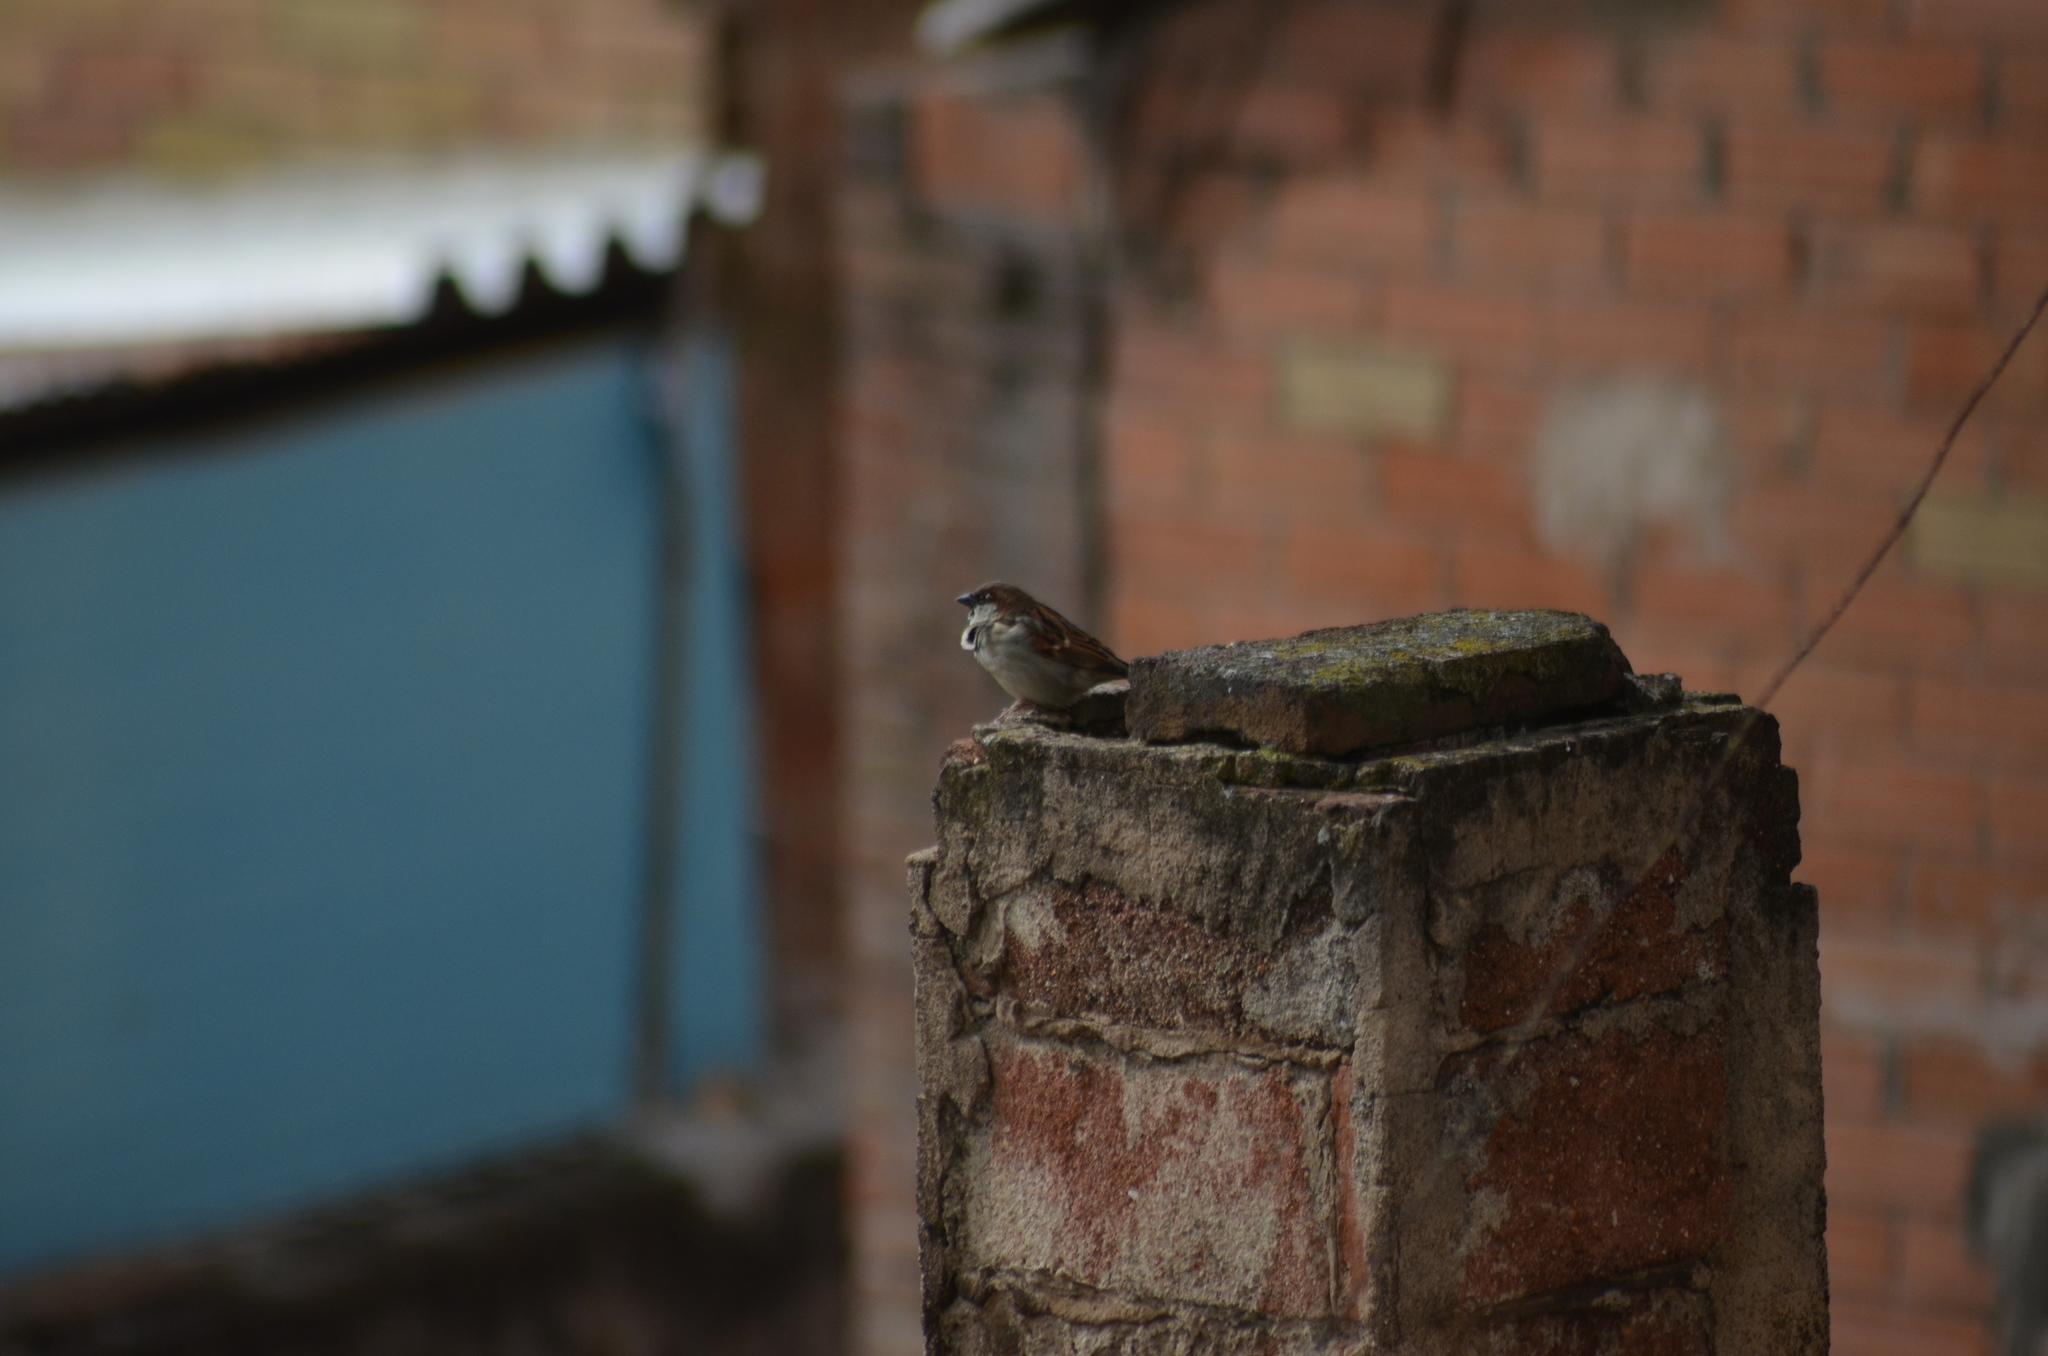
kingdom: Animalia
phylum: Chordata
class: Aves
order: Passeriformes
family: Passeridae
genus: Passer
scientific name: Passer domesticus
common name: House sparrow
